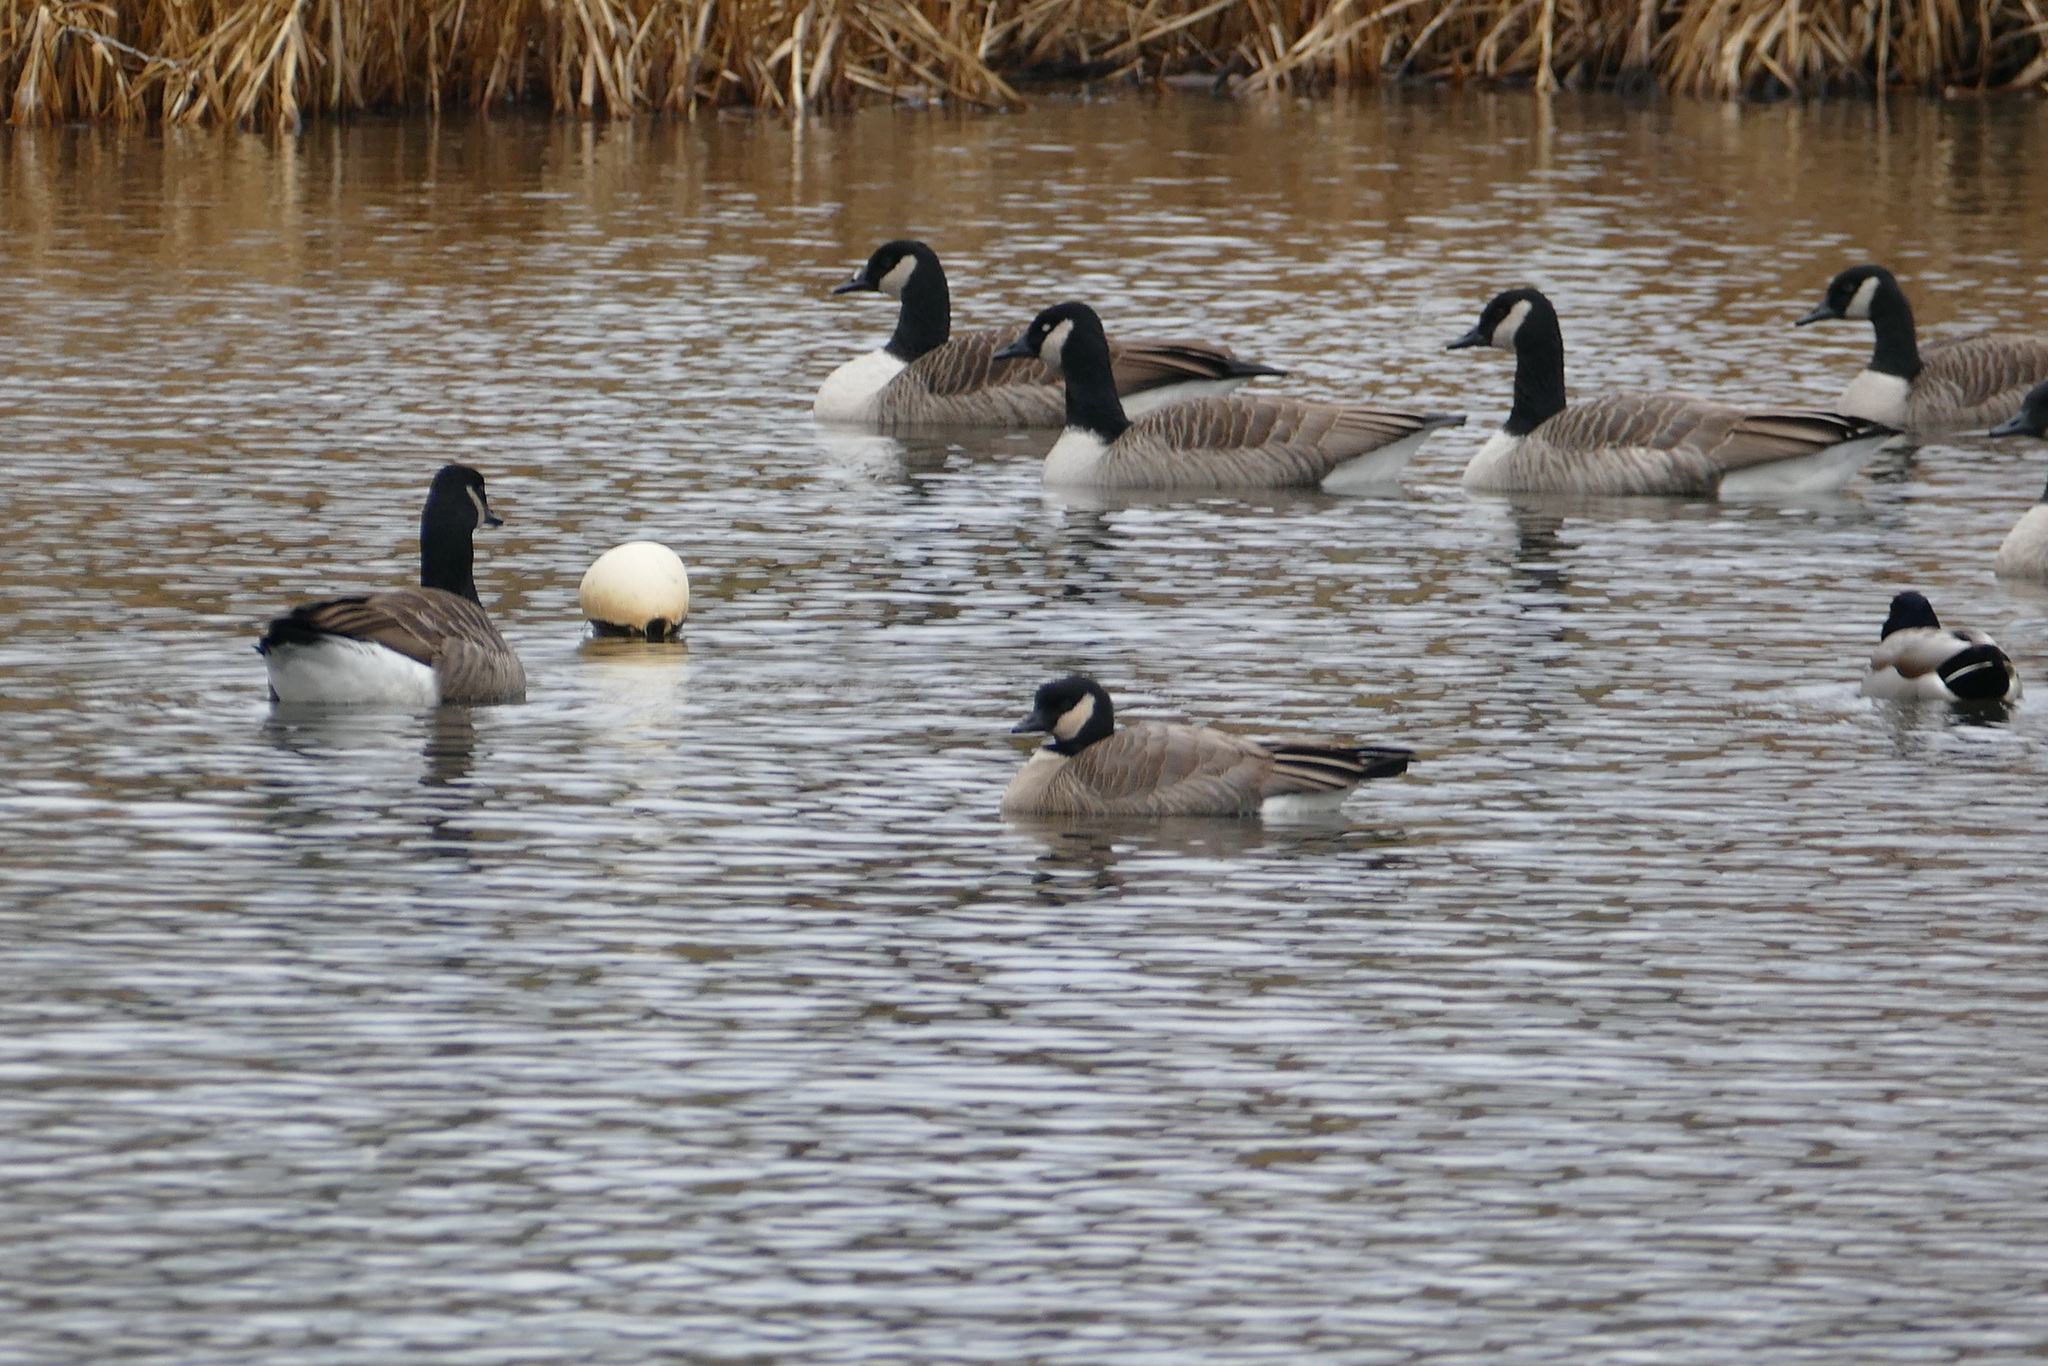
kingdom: Animalia
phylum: Chordata
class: Aves
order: Anseriformes
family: Anatidae
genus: Branta
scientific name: Branta canadensis
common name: Canada goose
